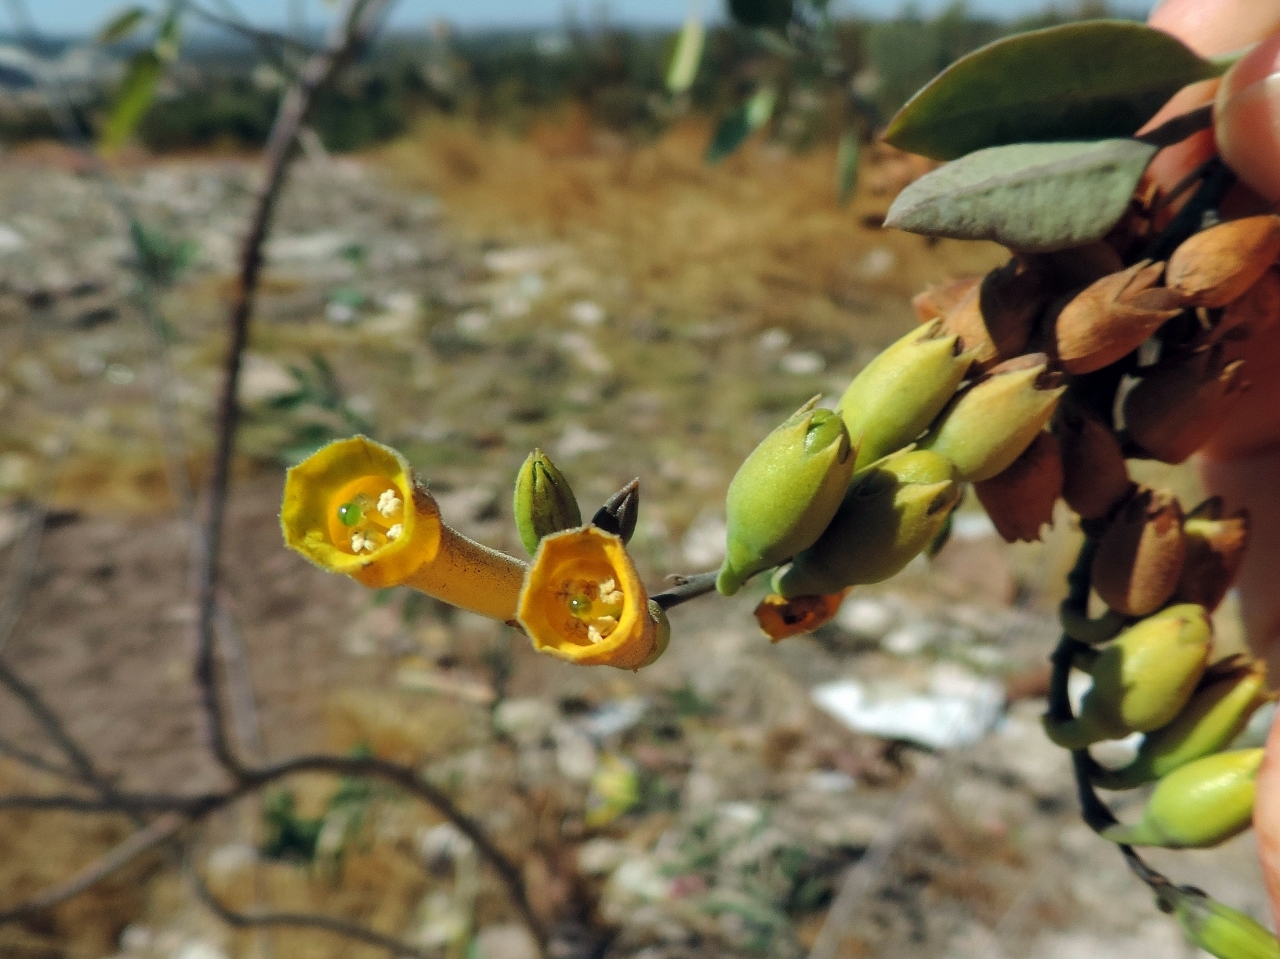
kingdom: Plantae
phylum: Tracheophyta
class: Magnoliopsida
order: Solanales
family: Solanaceae
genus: Nicotiana
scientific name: Nicotiana glauca
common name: Tree tobacco
